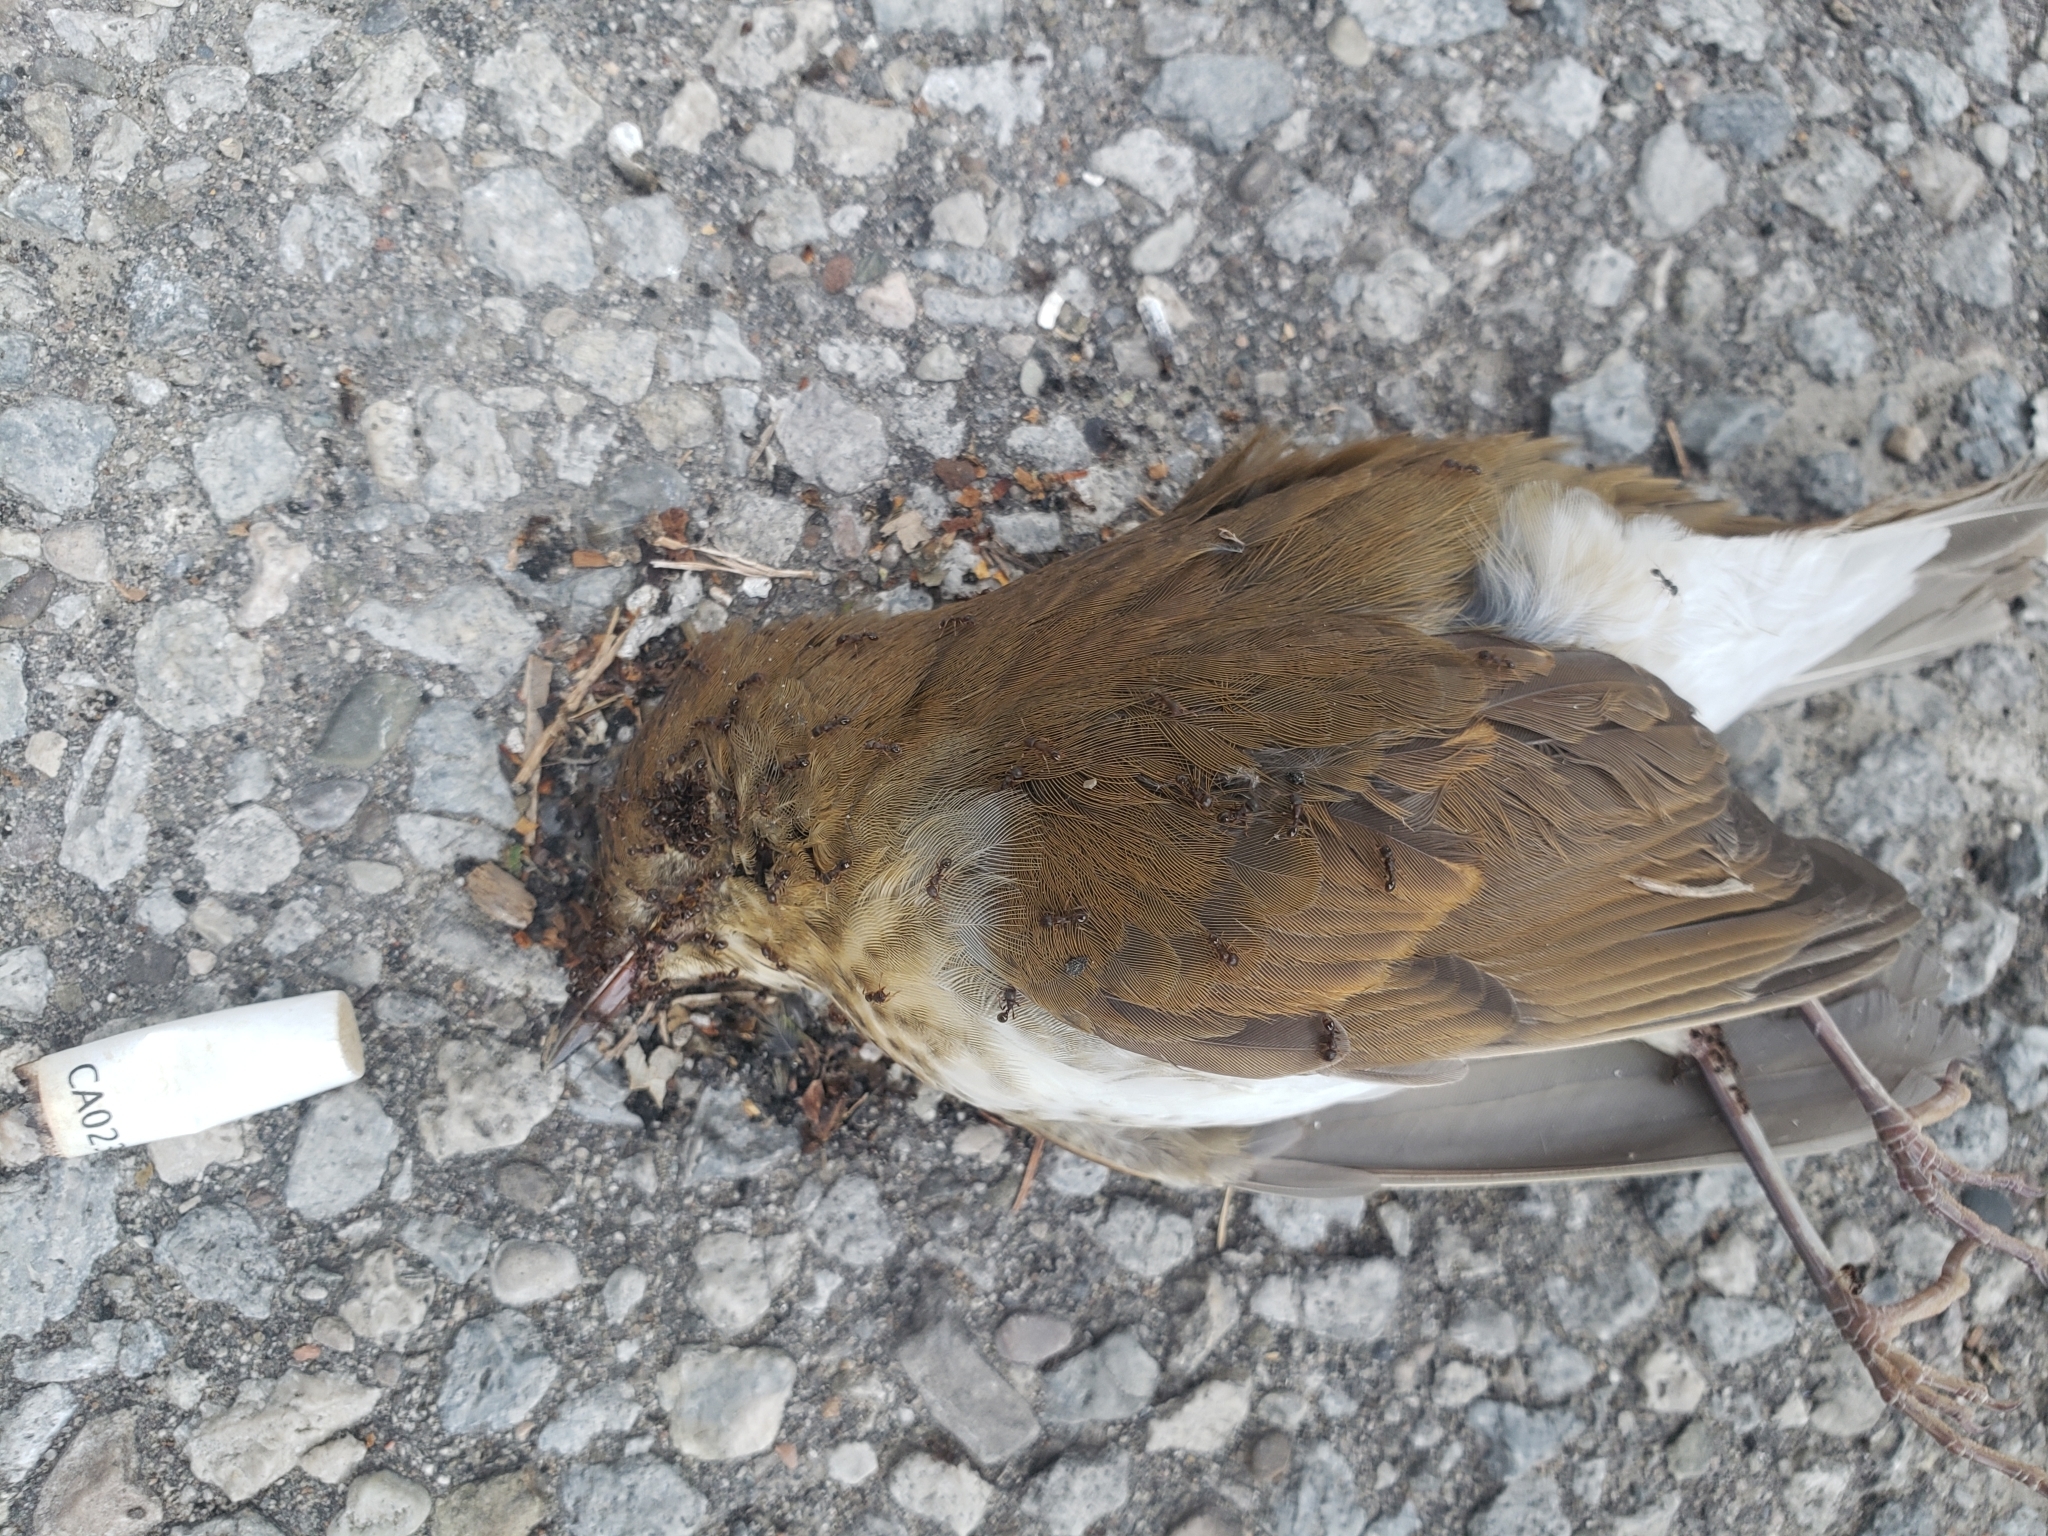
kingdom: Animalia
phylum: Chordata
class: Aves
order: Passeriformes
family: Turdidae
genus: Catharus
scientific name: Catharus ustulatus
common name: Swainson's thrush
